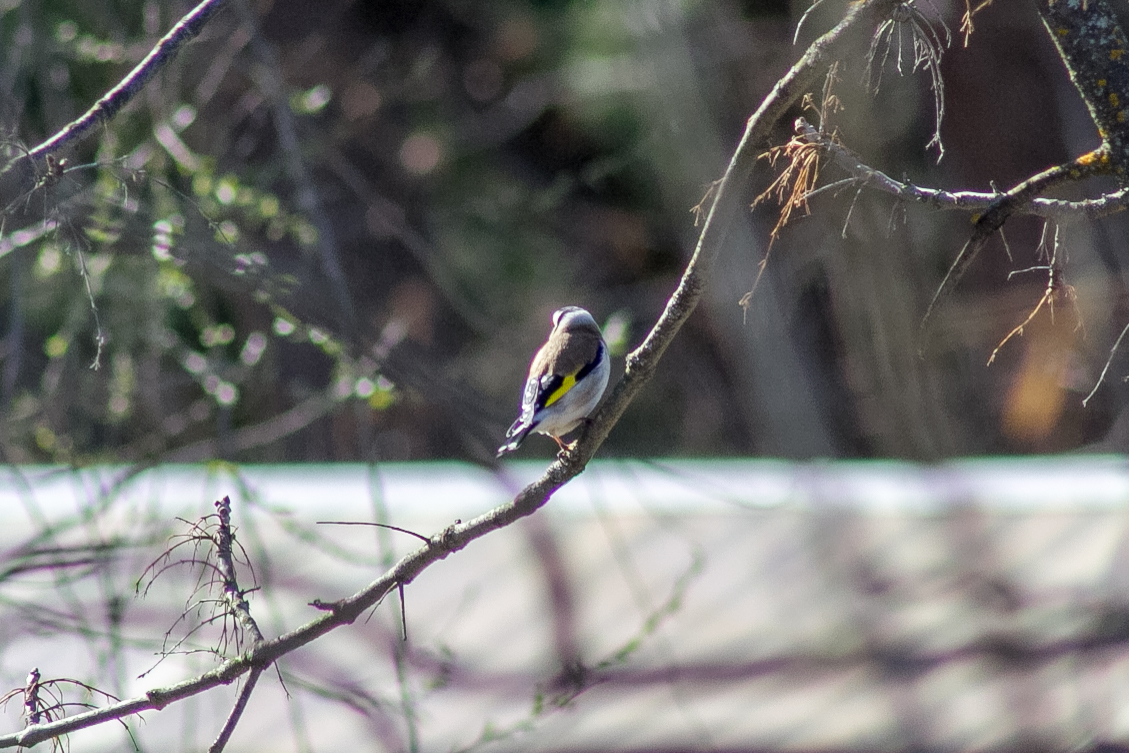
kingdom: Animalia
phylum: Chordata
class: Aves
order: Passeriformes
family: Fringillidae
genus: Carduelis
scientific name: Carduelis carduelis
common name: European goldfinch
